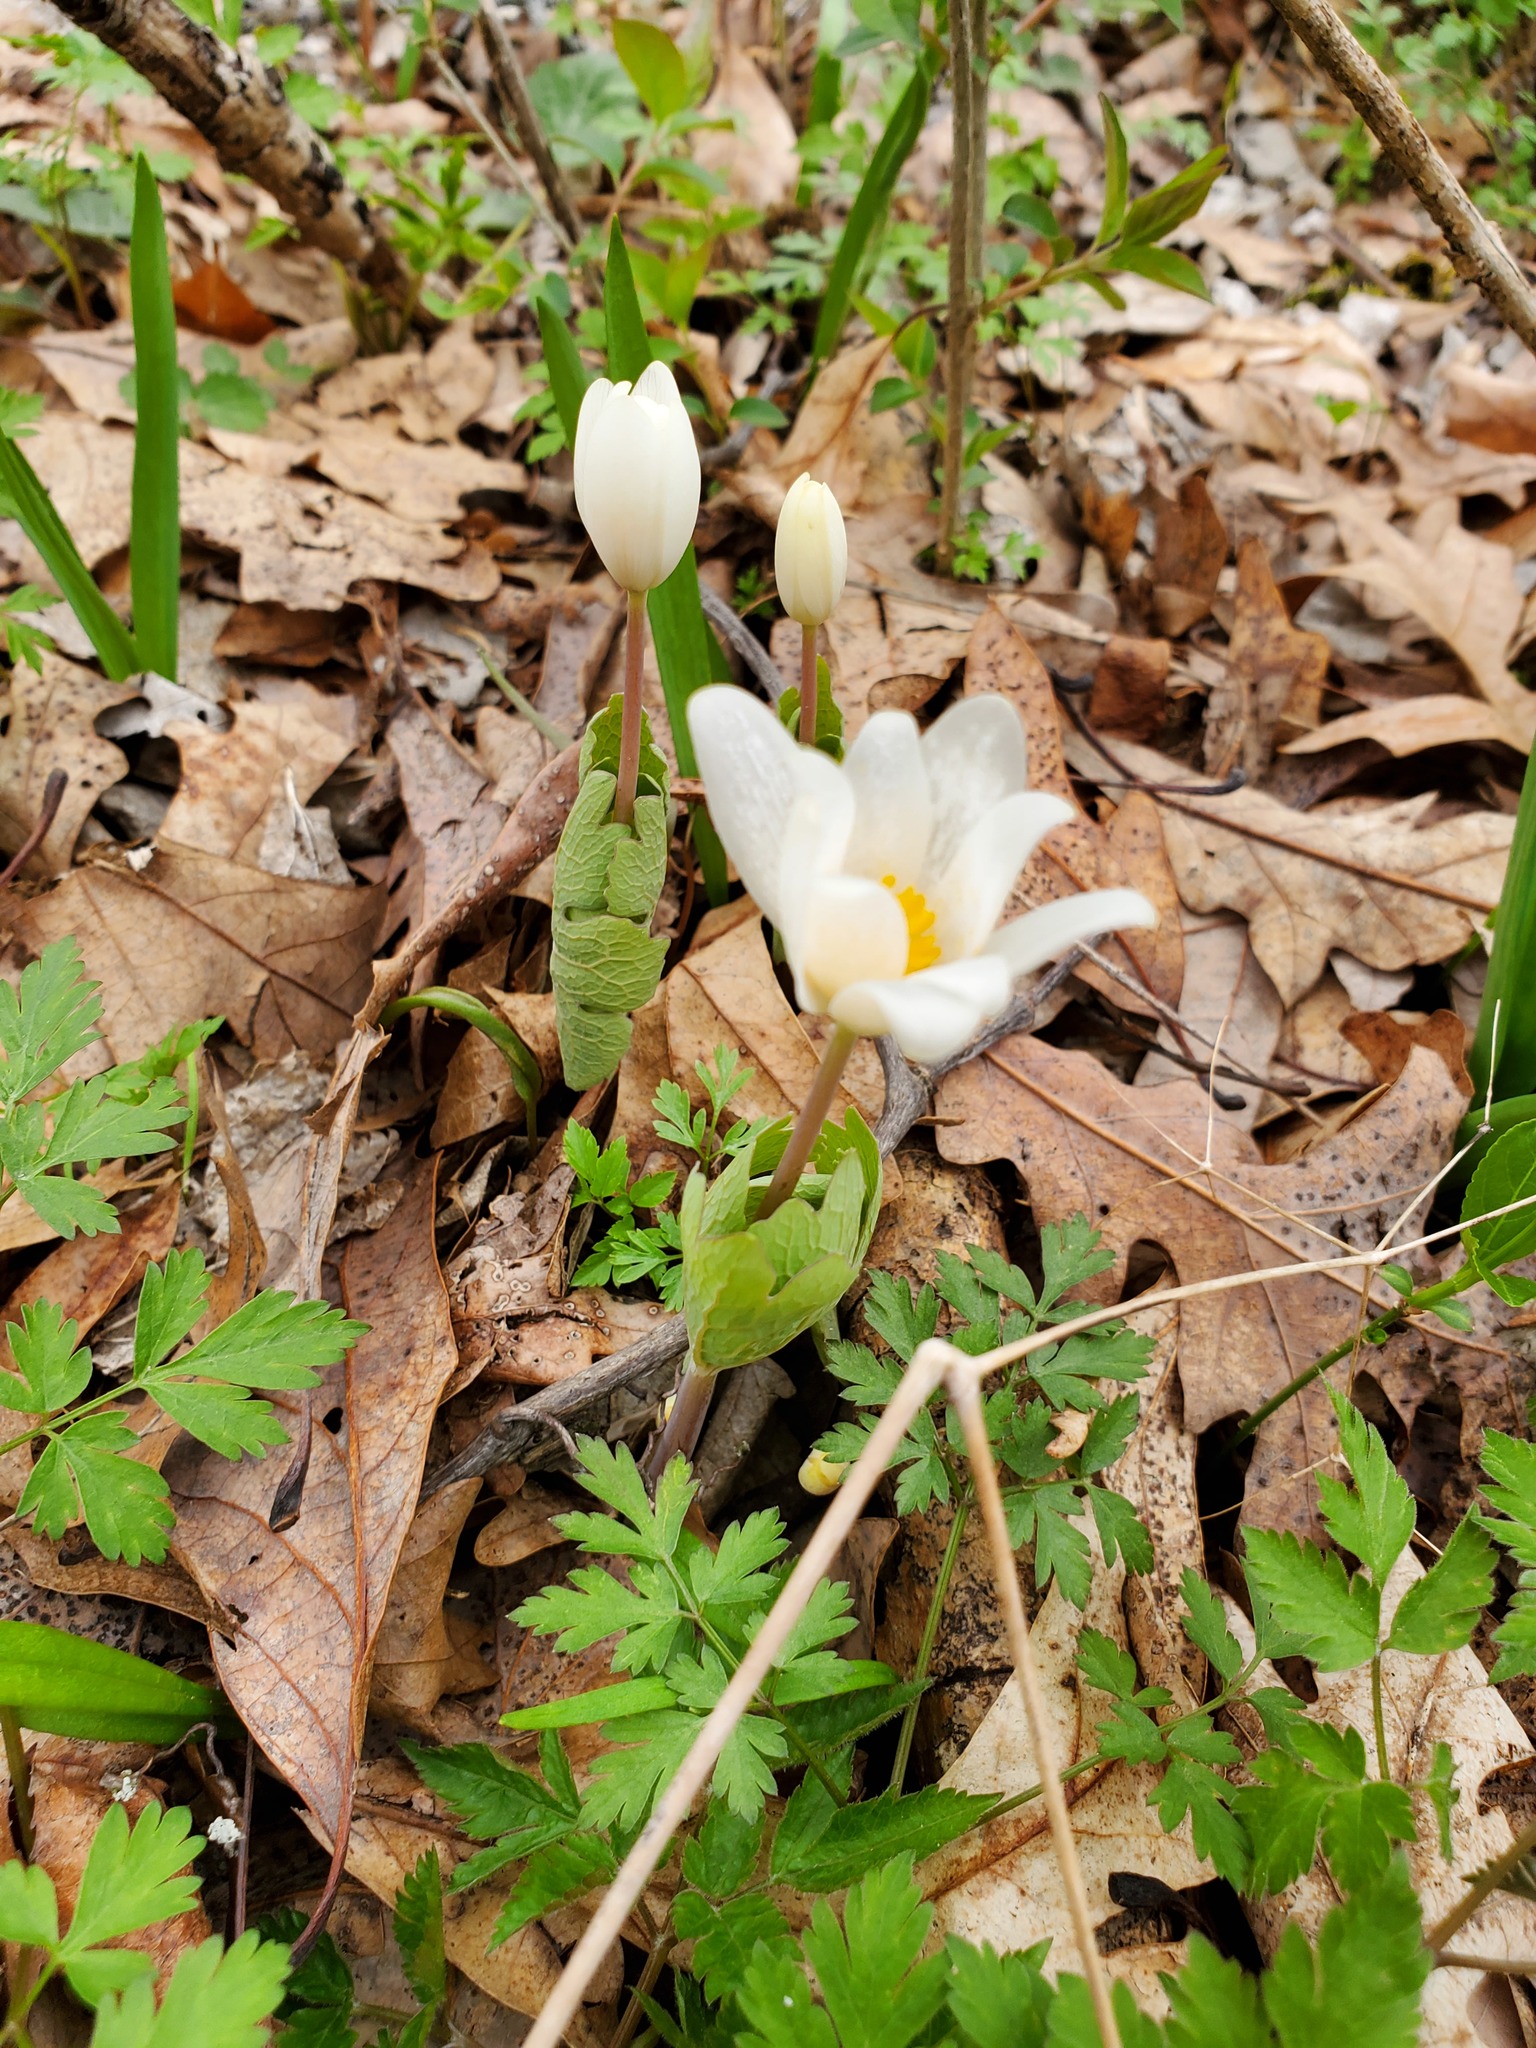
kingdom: Plantae
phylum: Tracheophyta
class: Magnoliopsida
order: Ranunculales
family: Papaveraceae
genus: Sanguinaria
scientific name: Sanguinaria canadensis
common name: Bloodroot
